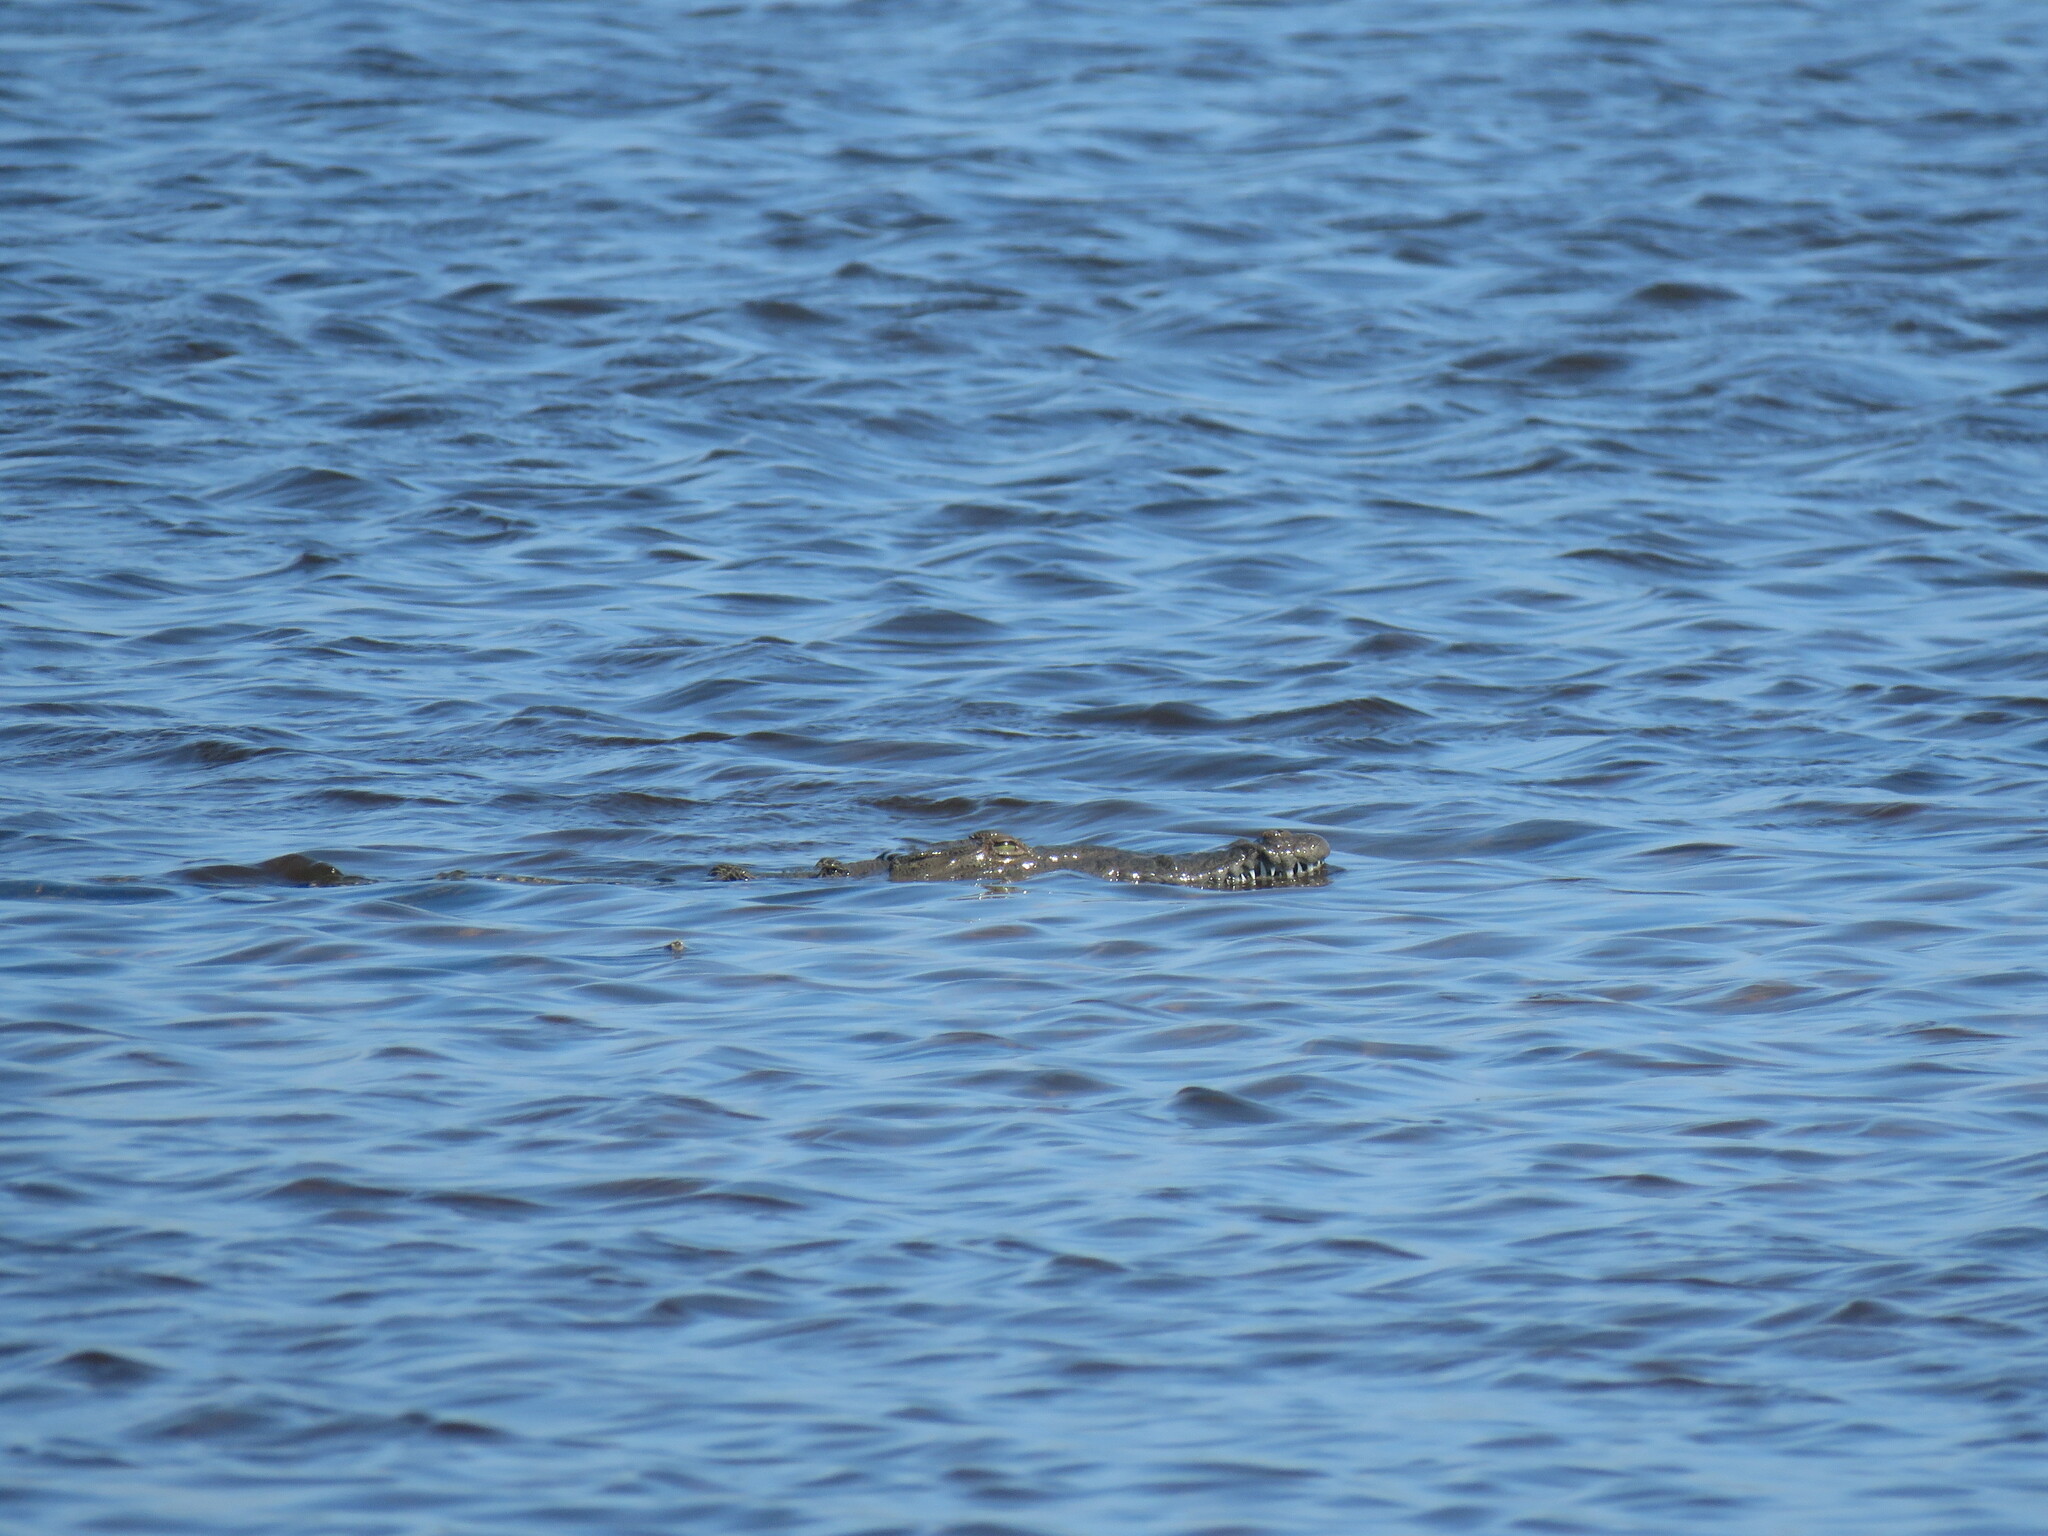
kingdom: Animalia
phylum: Chordata
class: Crocodylia
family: Crocodylidae
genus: Crocodylus
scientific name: Crocodylus acutus
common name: American crocodile
